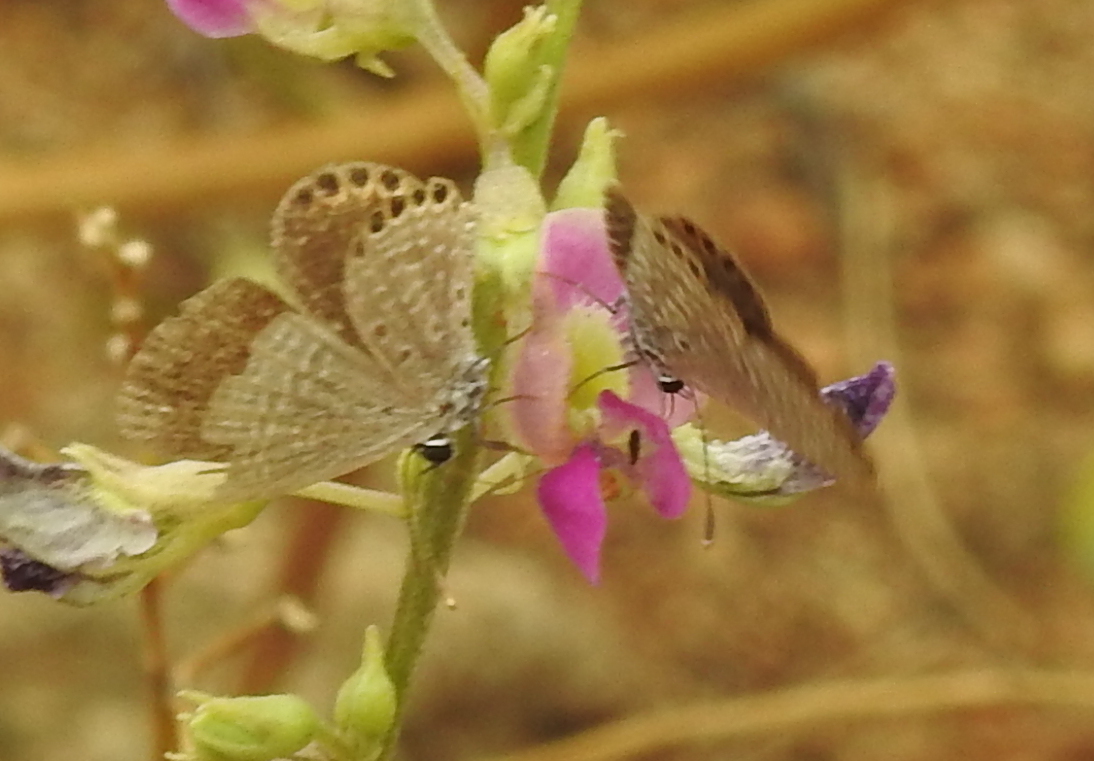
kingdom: Animalia
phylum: Arthropoda
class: Insecta
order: Lepidoptera
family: Lycaenidae
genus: Freyeria
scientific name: Freyeria putli
